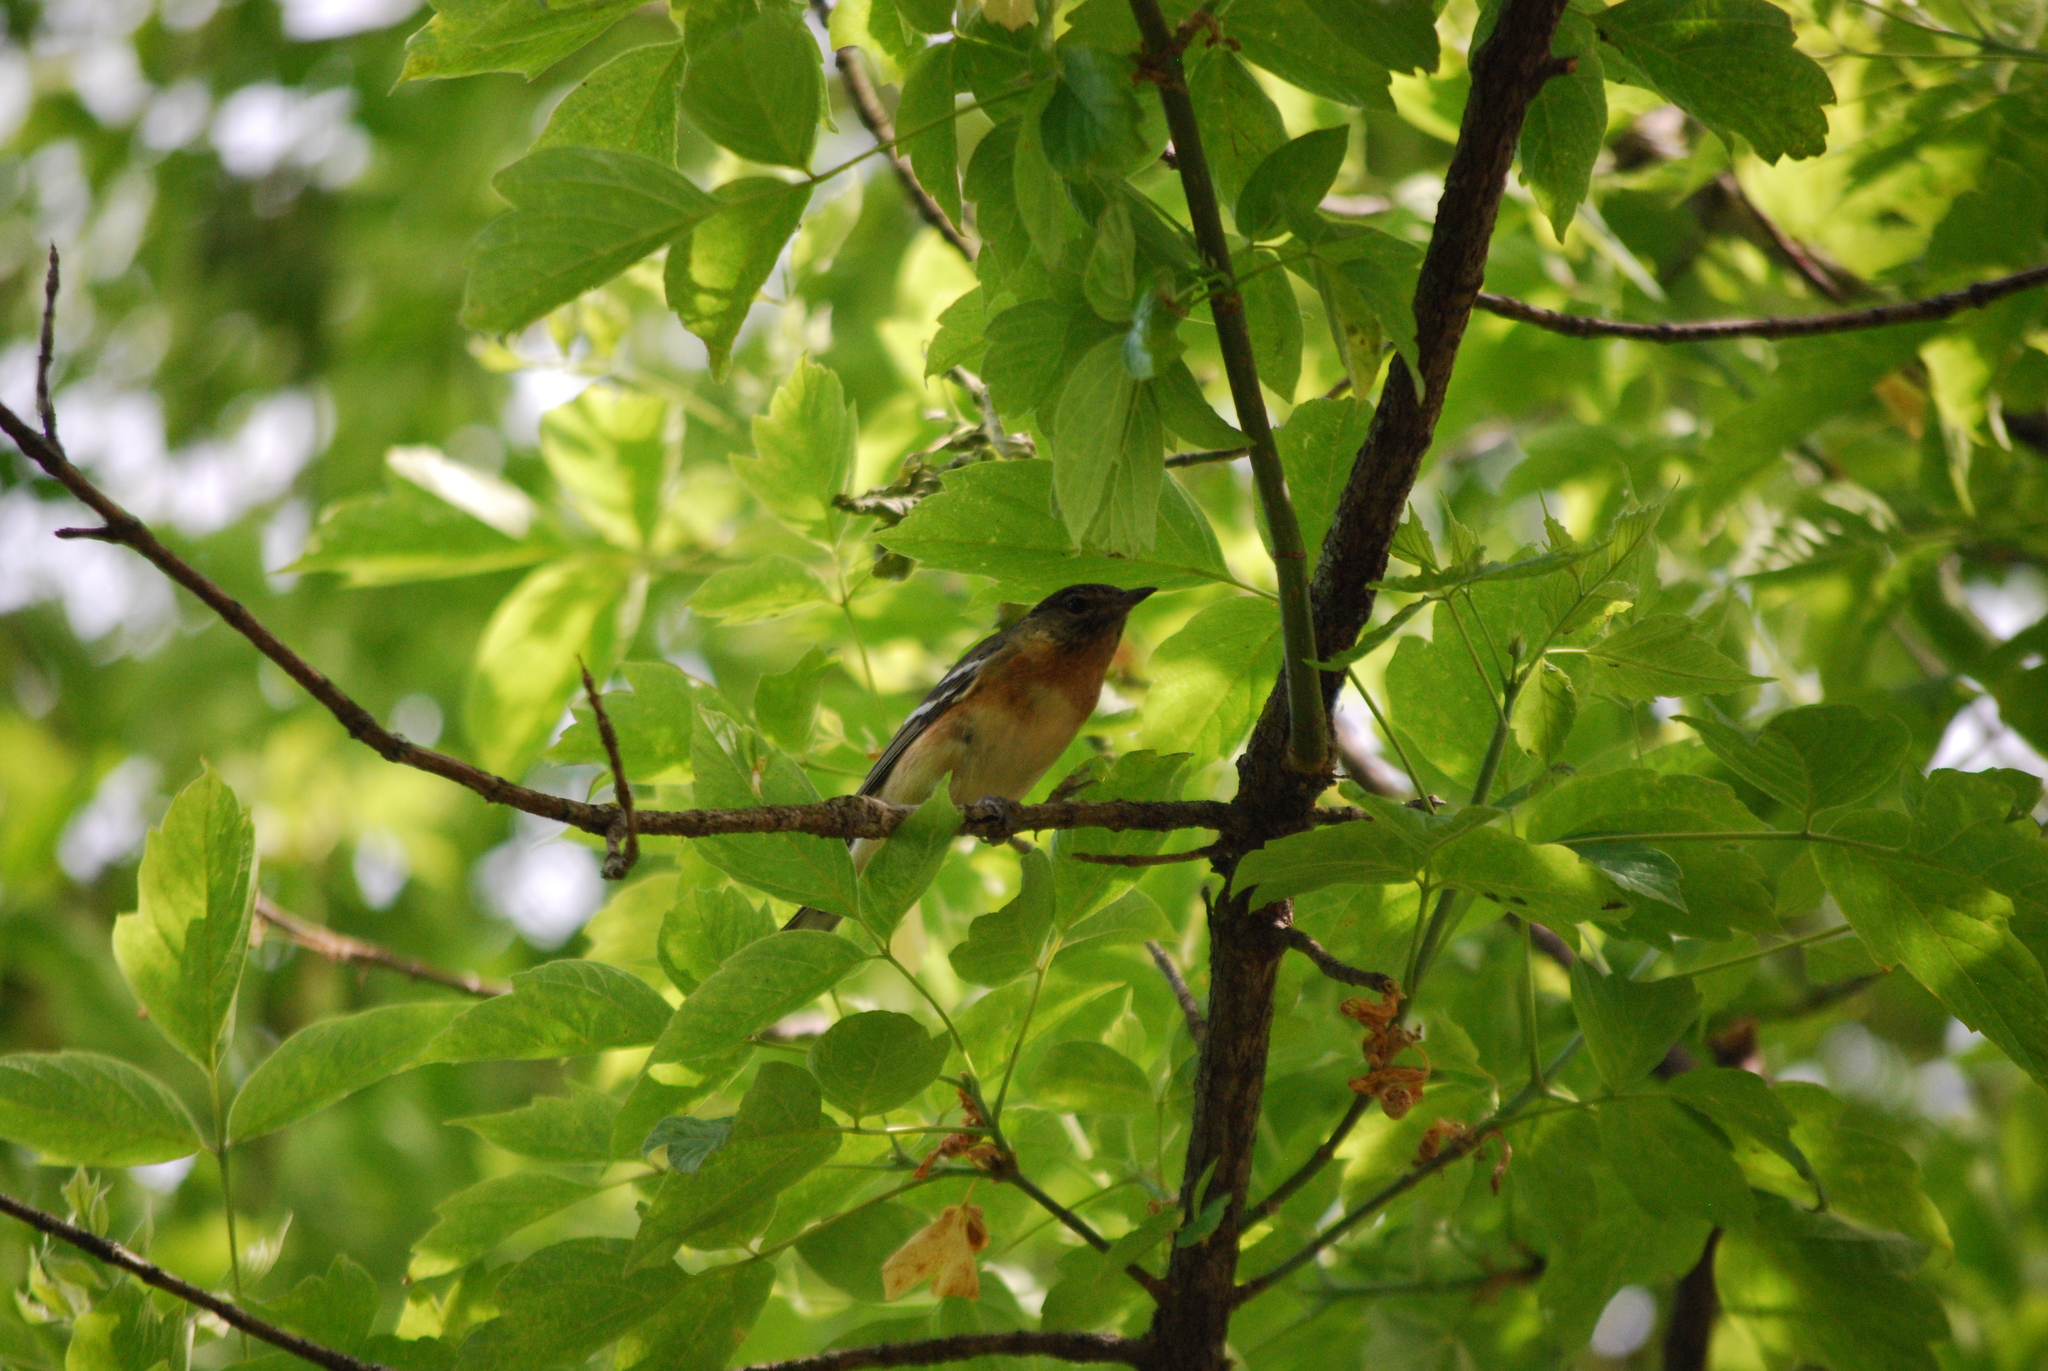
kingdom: Animalia
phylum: Chordata
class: Aves
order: Passeriformes
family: Parulidae
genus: Setophaga
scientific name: Setophaga castanea
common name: Bay-breasted warbler
